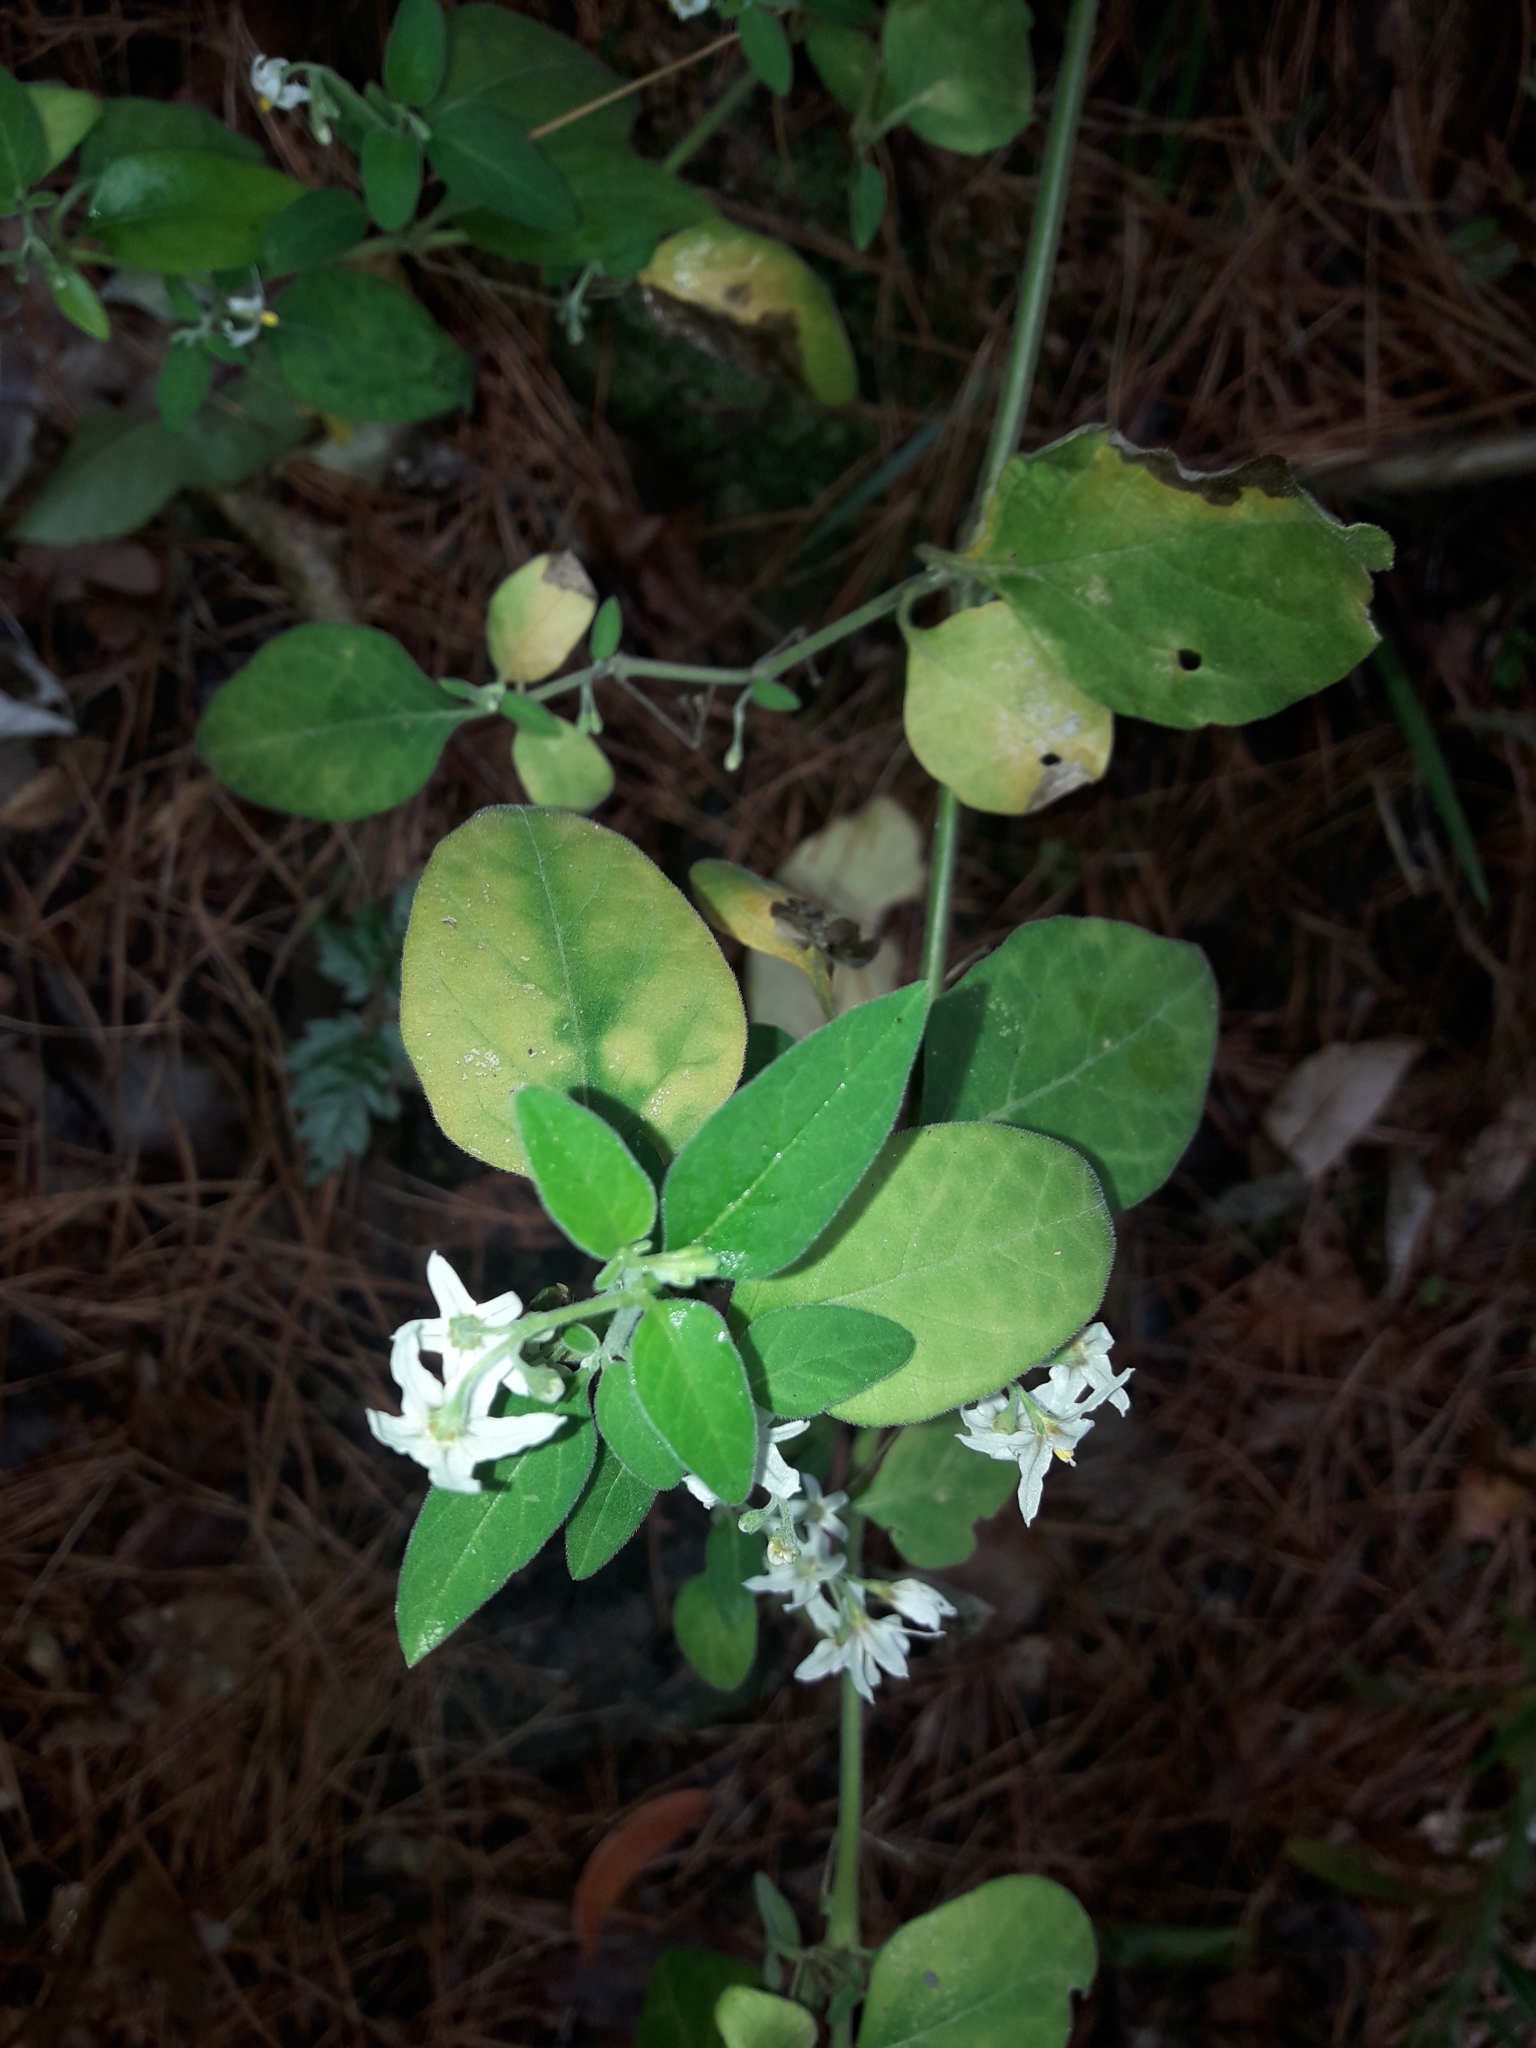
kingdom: Plantae
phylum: Tracheophyta
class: Magnoliopsida
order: Solanales
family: Solanaceae
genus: Solanum
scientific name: Solanum chenopodioides
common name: Tall nightshade
